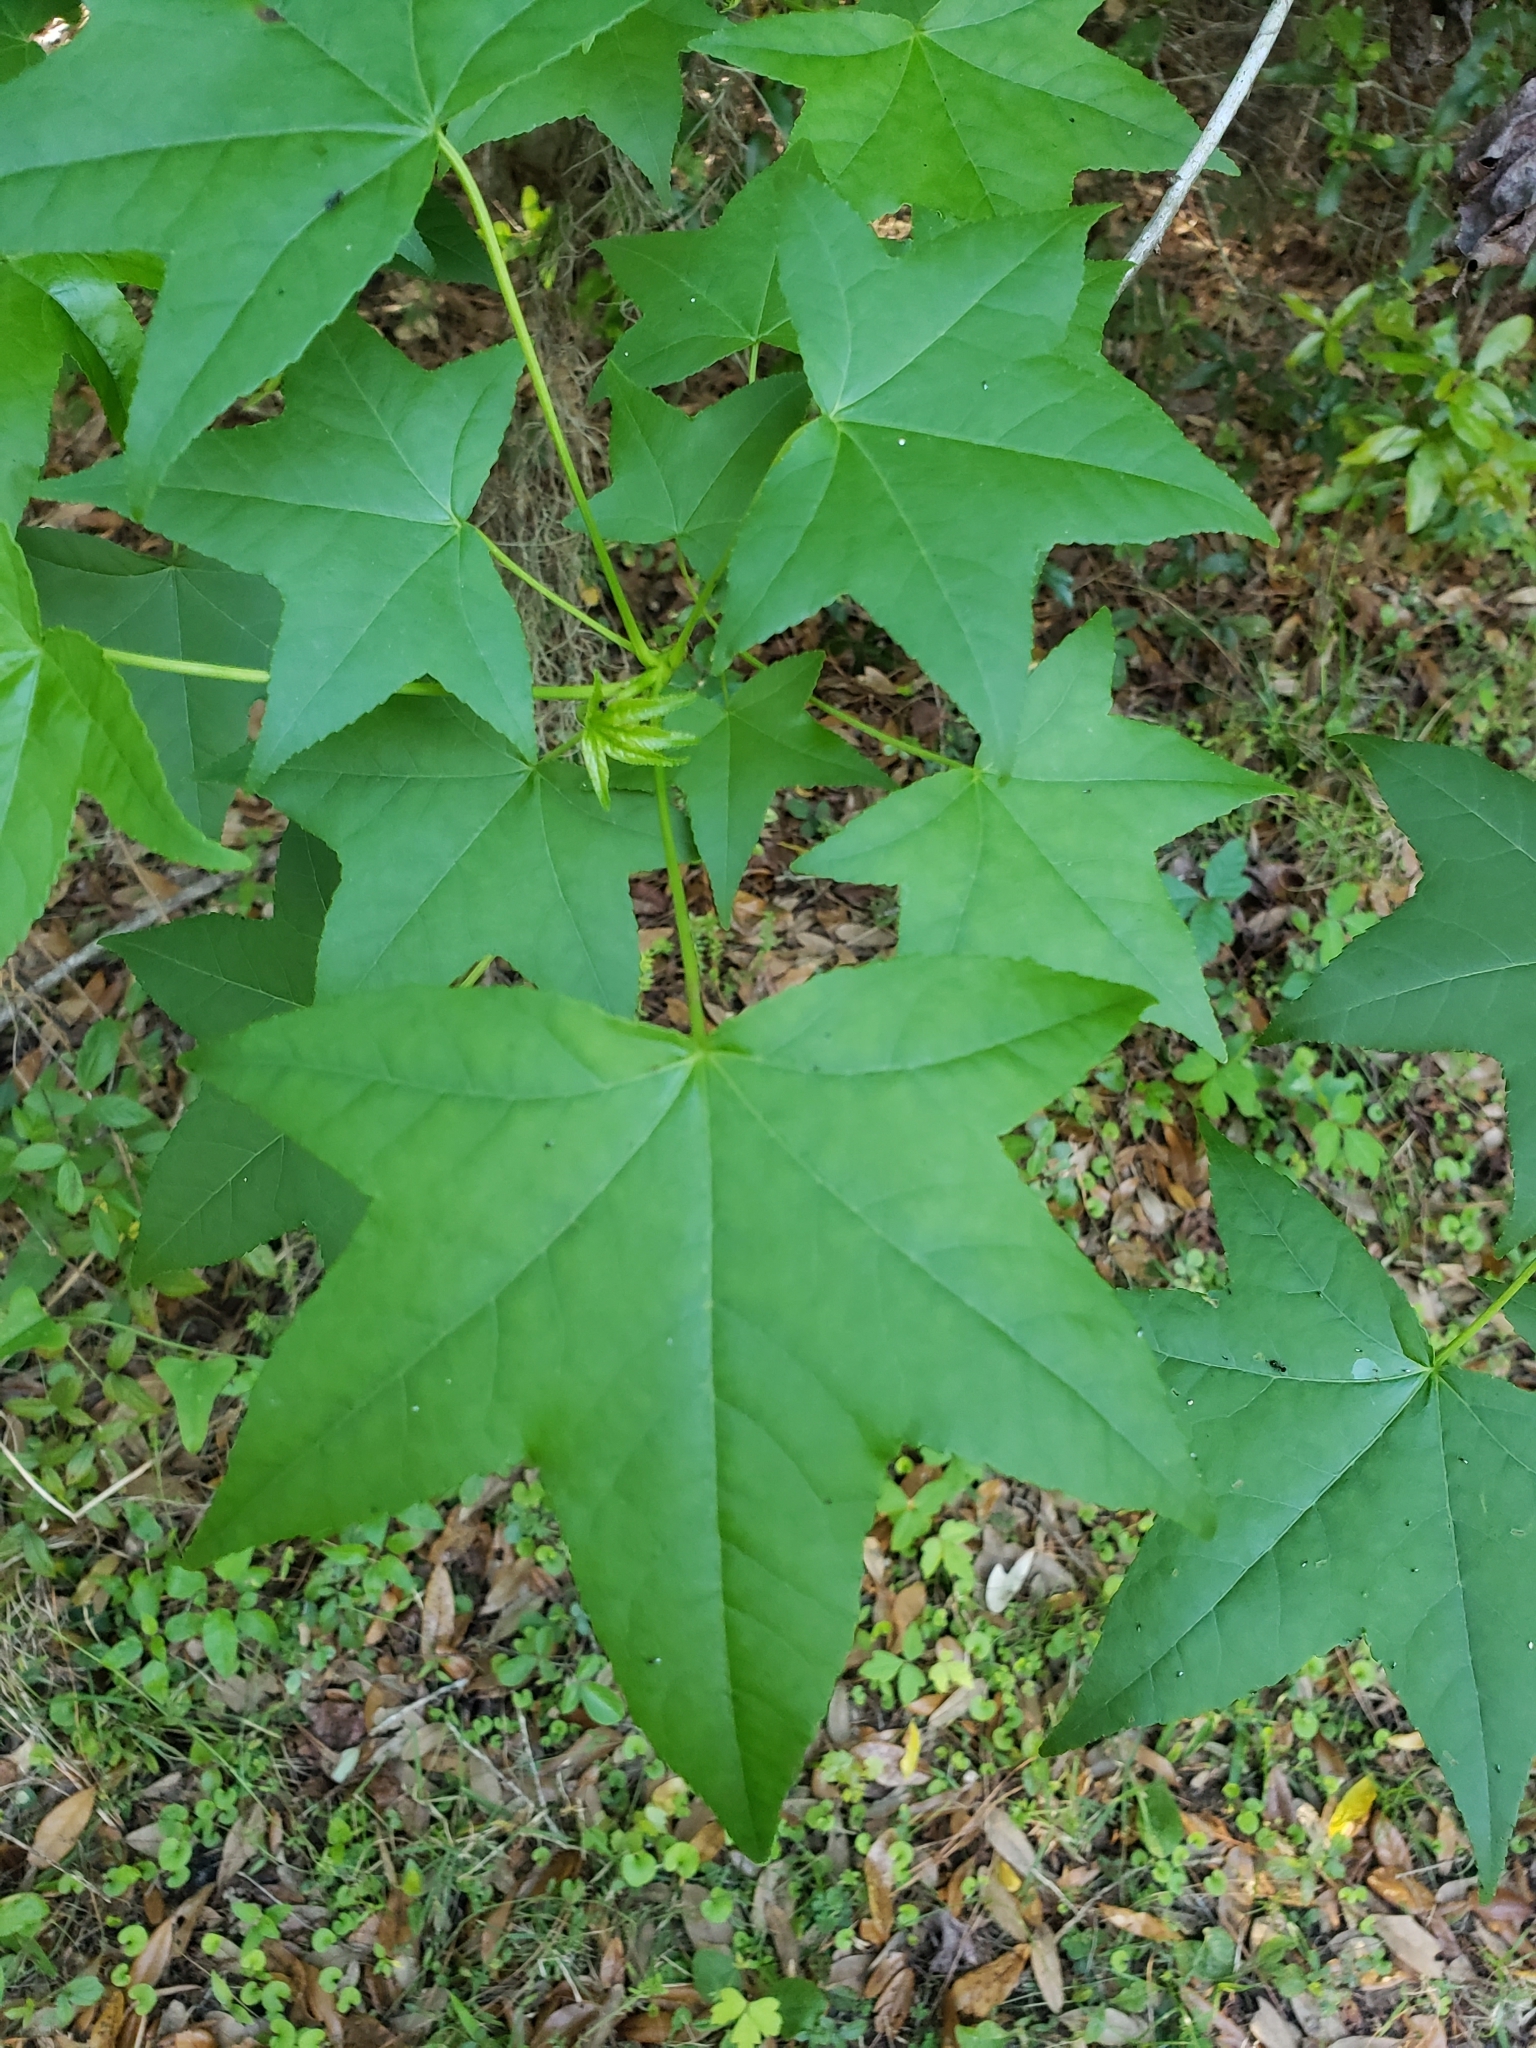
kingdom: Plantae
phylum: Tracheophyta
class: Magnoliopsida
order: Saxifragales
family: Altingiaceae
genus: Liquidambar
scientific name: Liquidambar styraciflua
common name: Sweet gum
